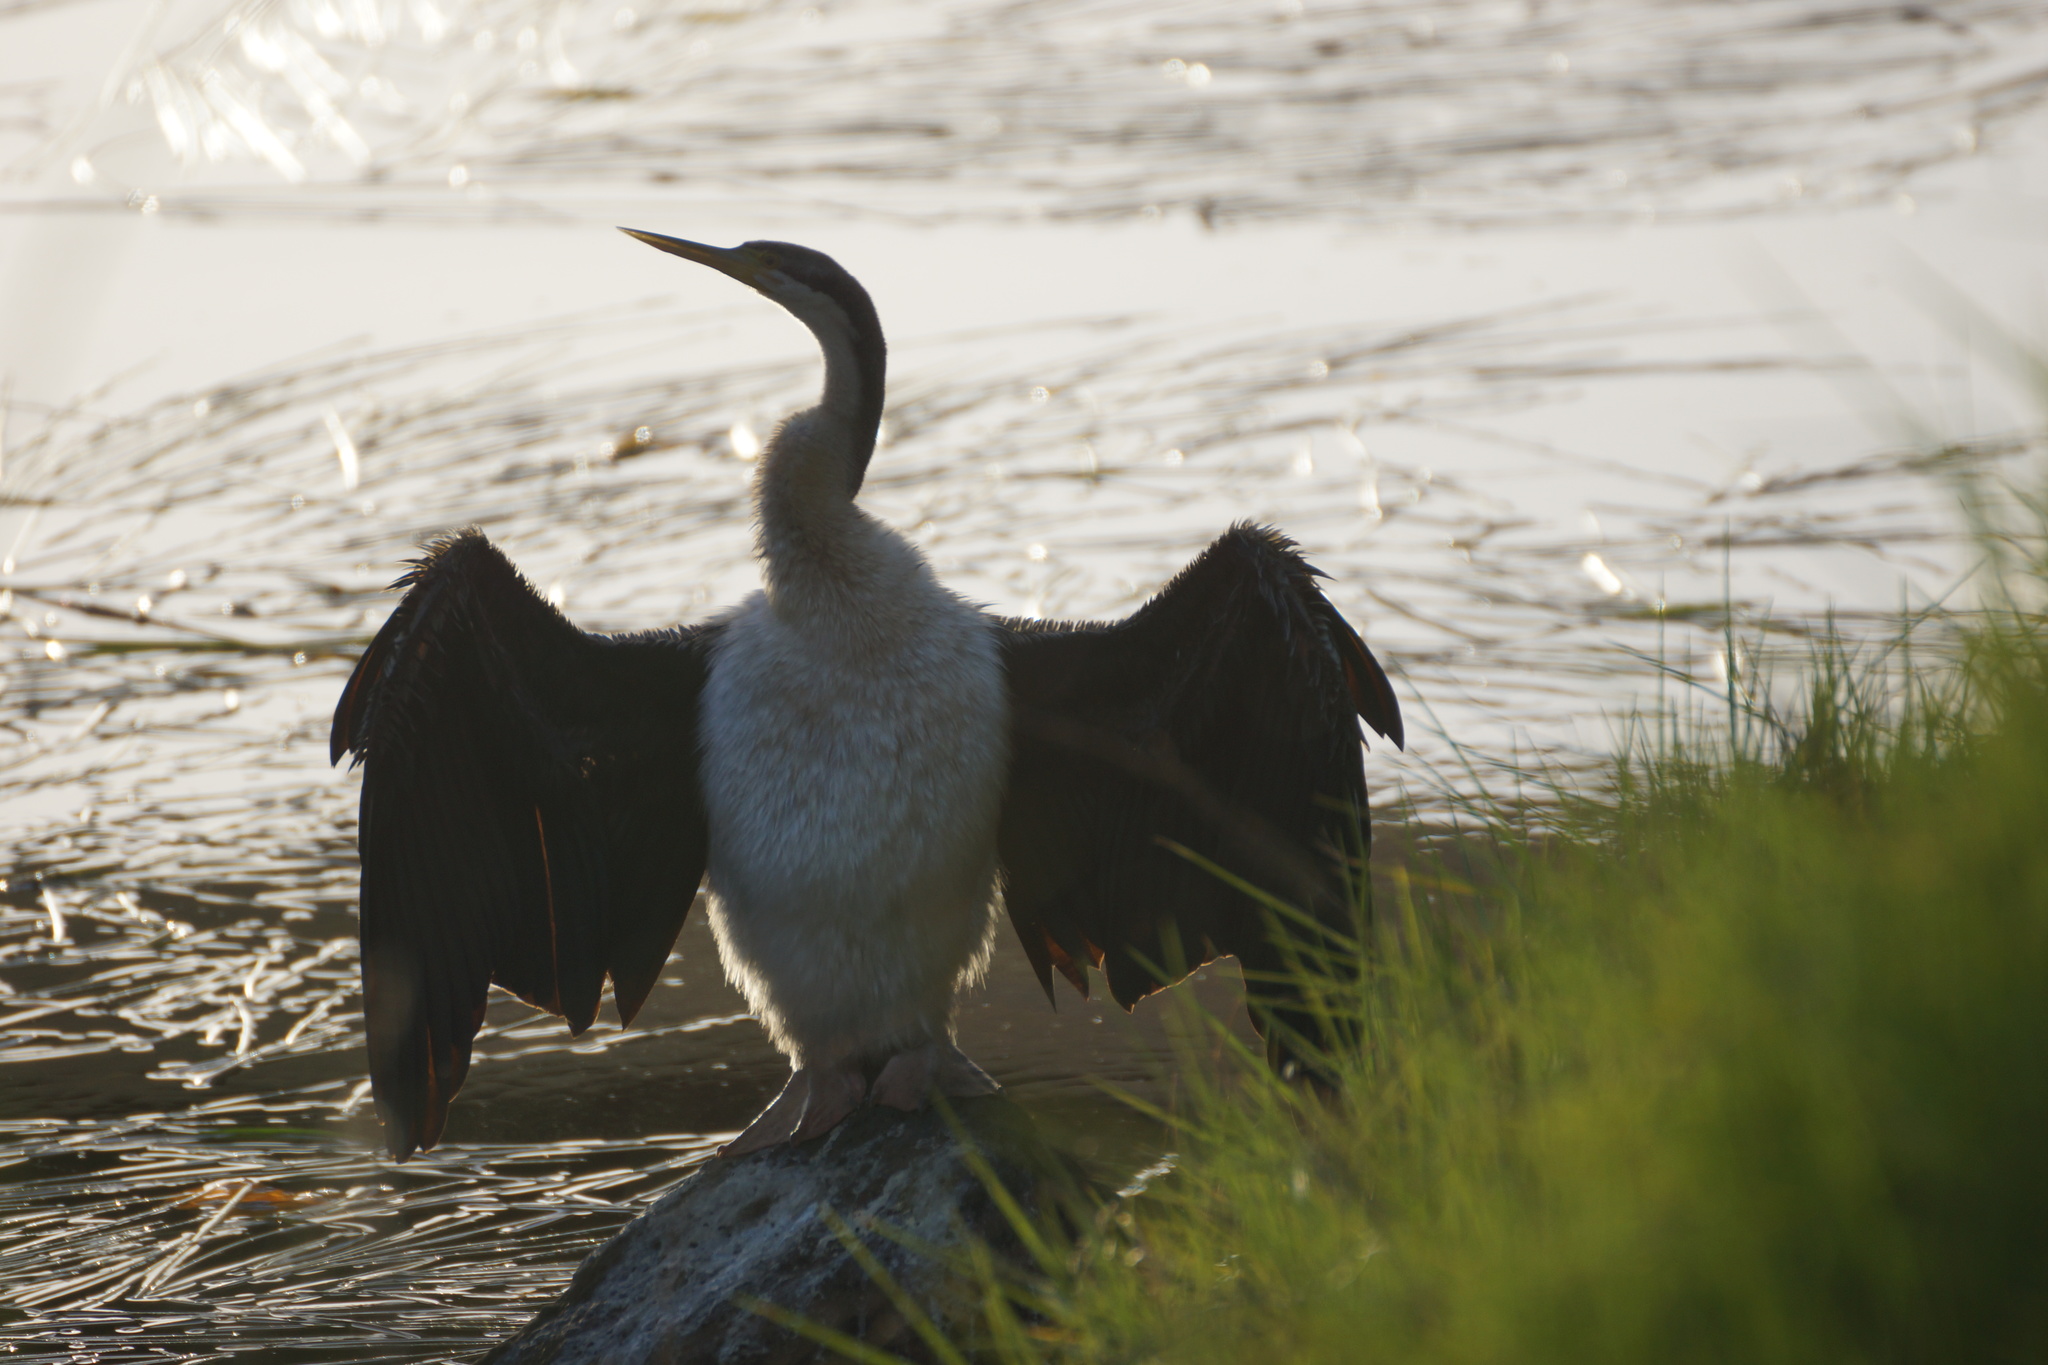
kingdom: Animalia
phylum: Chordata
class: Aves
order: Suliformes
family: Anhingidae
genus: Anhinga
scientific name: Anhinga novaehollandiae
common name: Australasian darter
